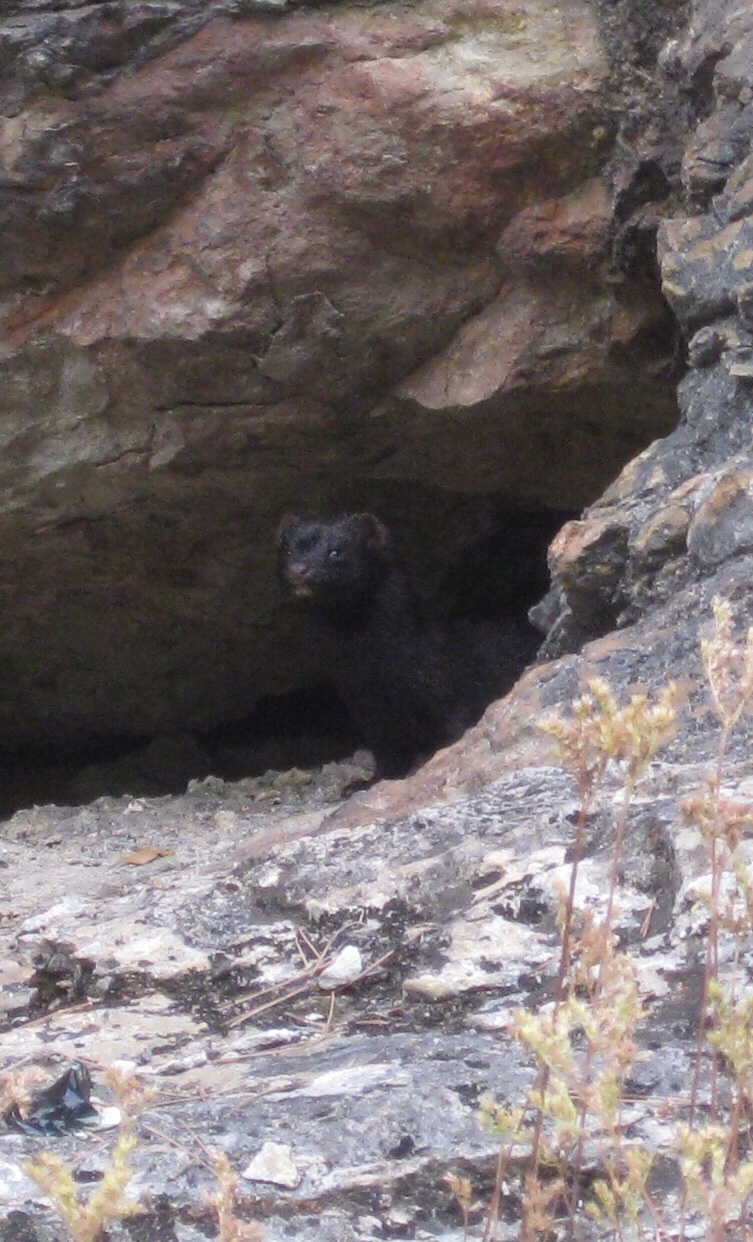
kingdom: Animalia
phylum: Chordata
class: Mammalia
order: Carnivora
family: Mustelidae
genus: Mustela
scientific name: Mustela
